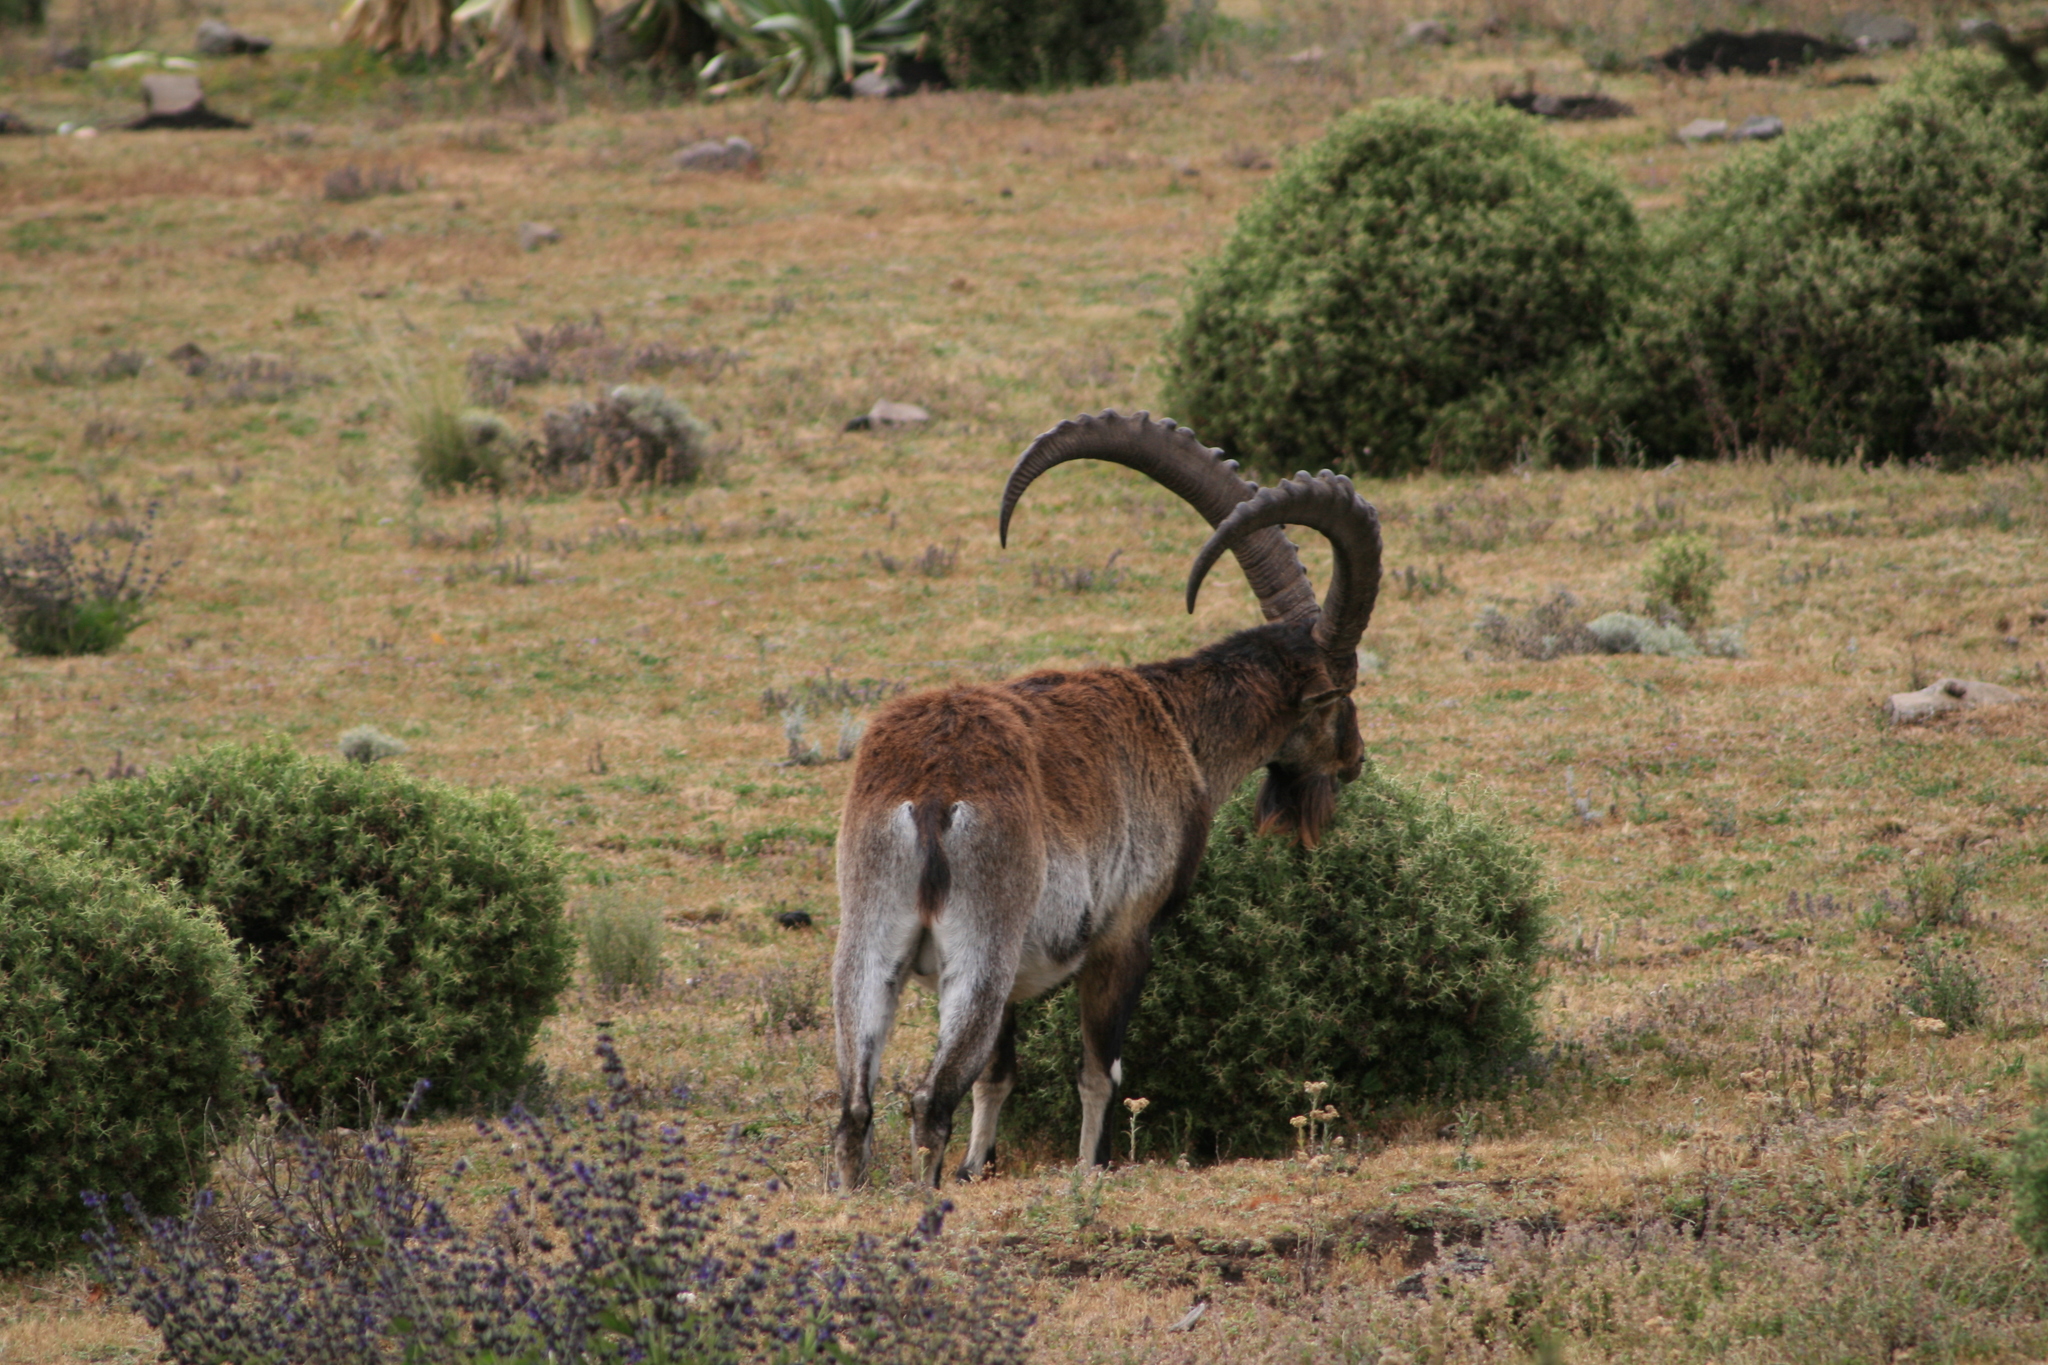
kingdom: Animalia
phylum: Chordata
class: Mammalia
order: Artiodactyla
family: Bovidae
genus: Capra
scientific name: Capra walie
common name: Walia
